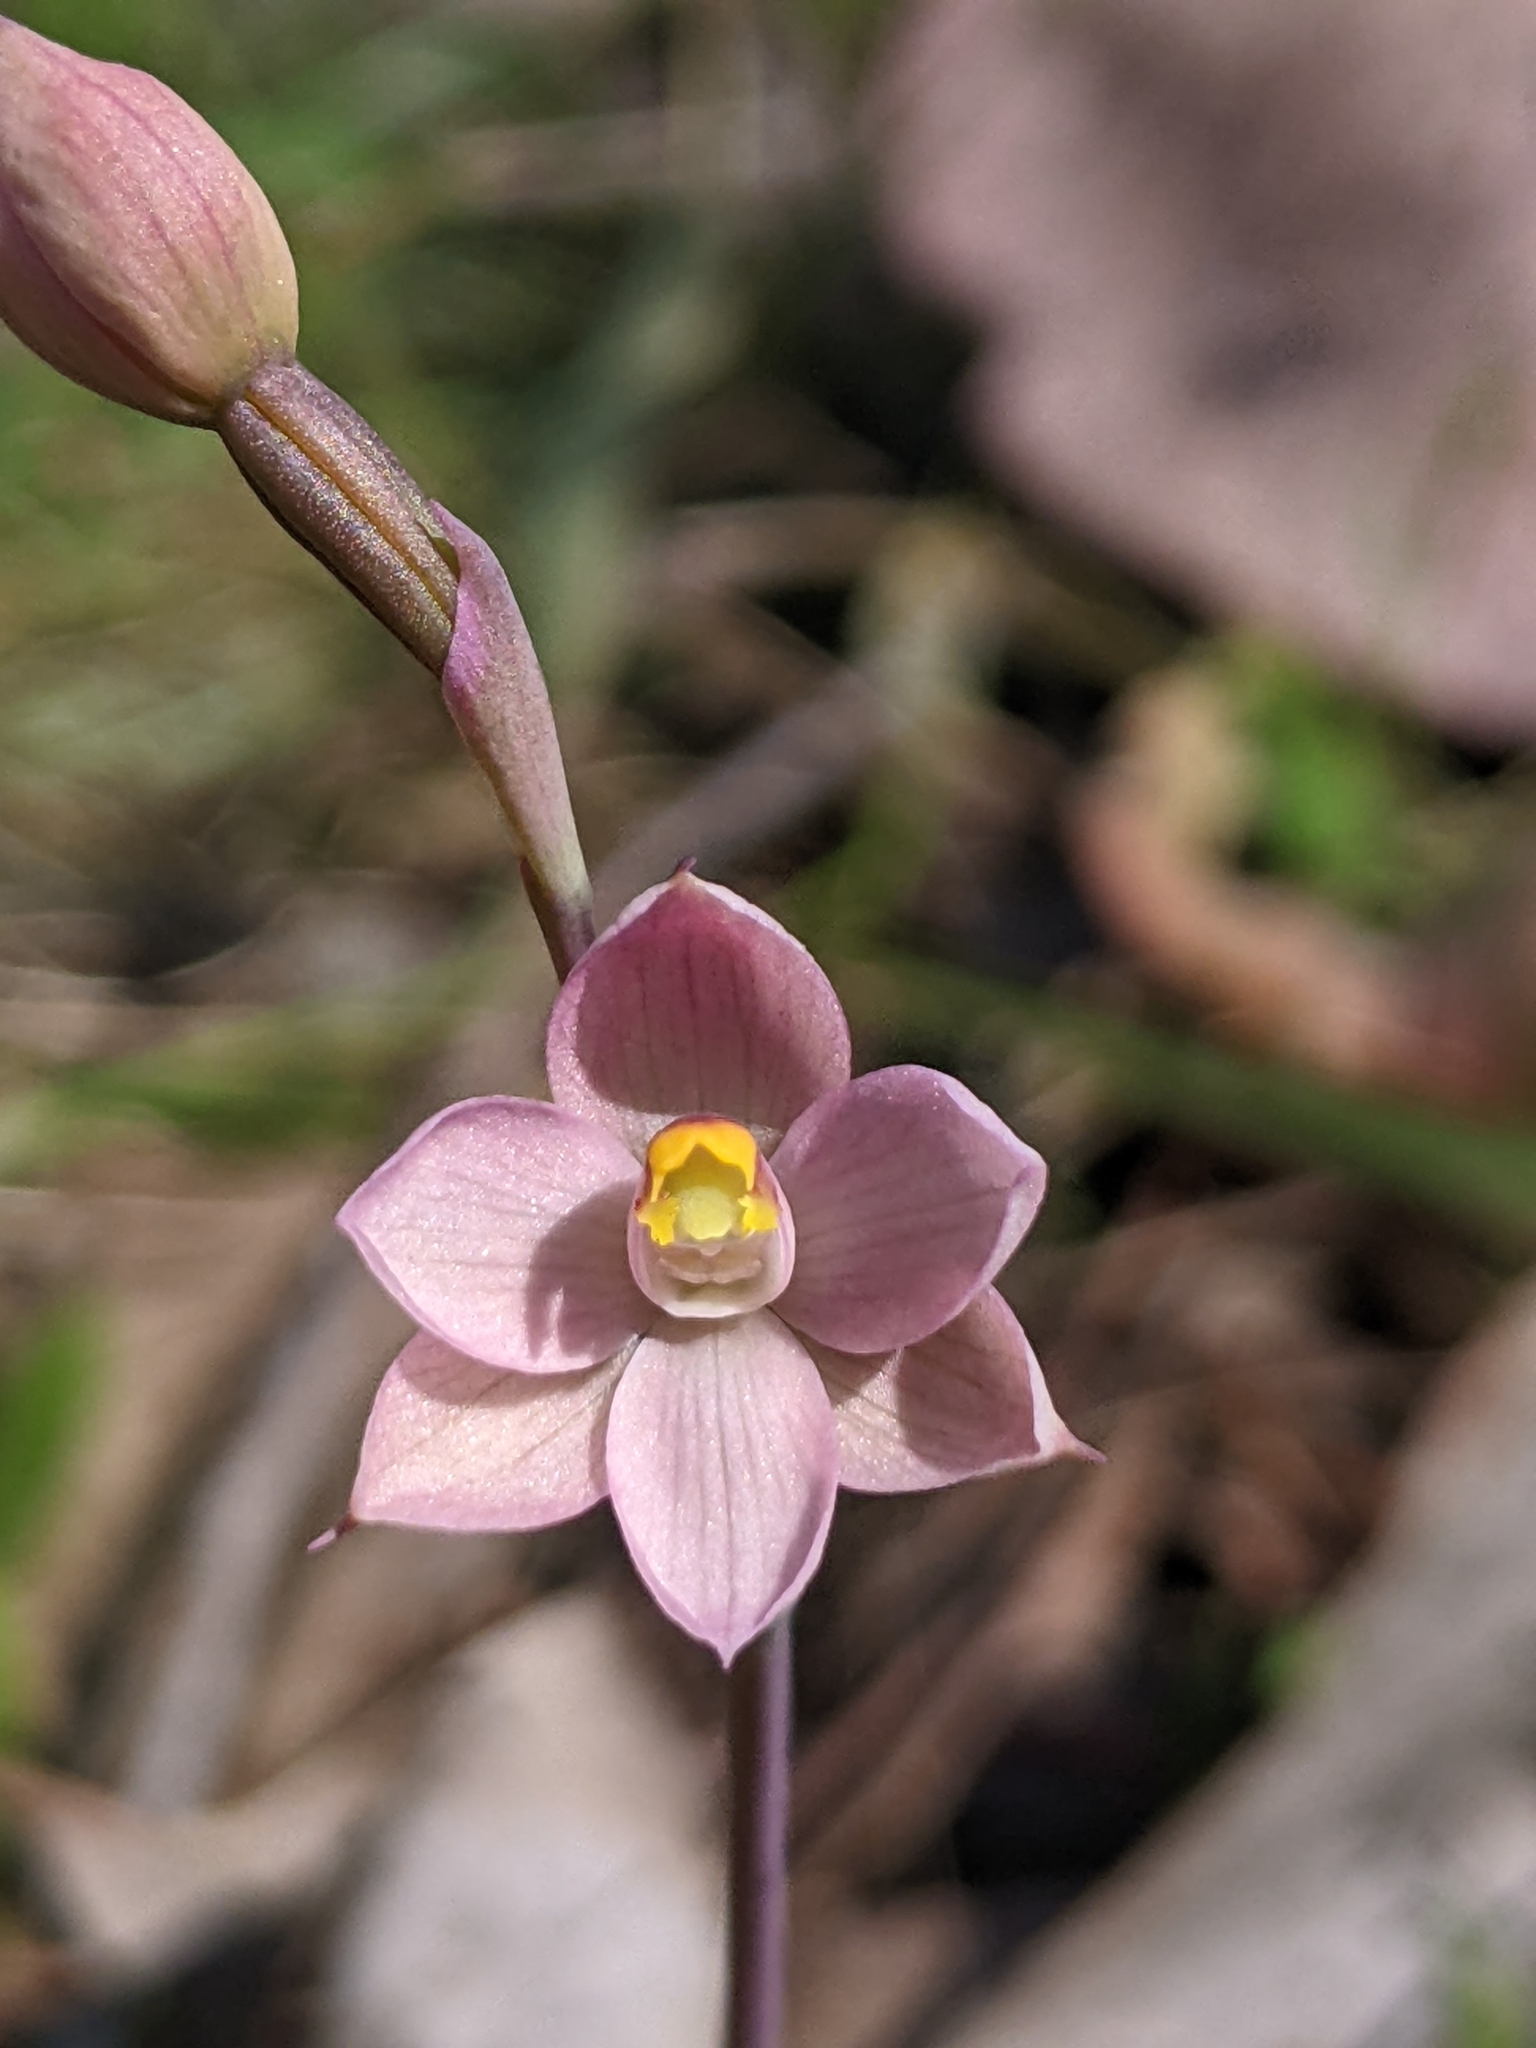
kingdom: Plantae
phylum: Tracheophyta
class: Liliopsida
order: Asparagales
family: Orchidaceae
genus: Thelymitra
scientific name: Thelymitra rubra
